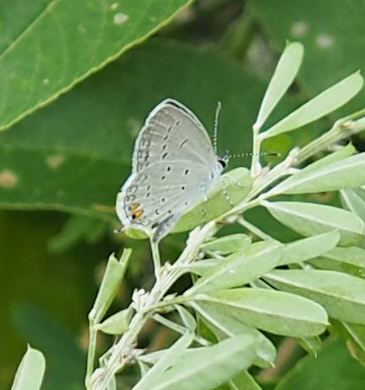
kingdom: Animalia
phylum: Arthropoda
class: Insecta
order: Lepidoptera
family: Lycaenidae
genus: Elkalyce
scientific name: Elkalyce comyntas
